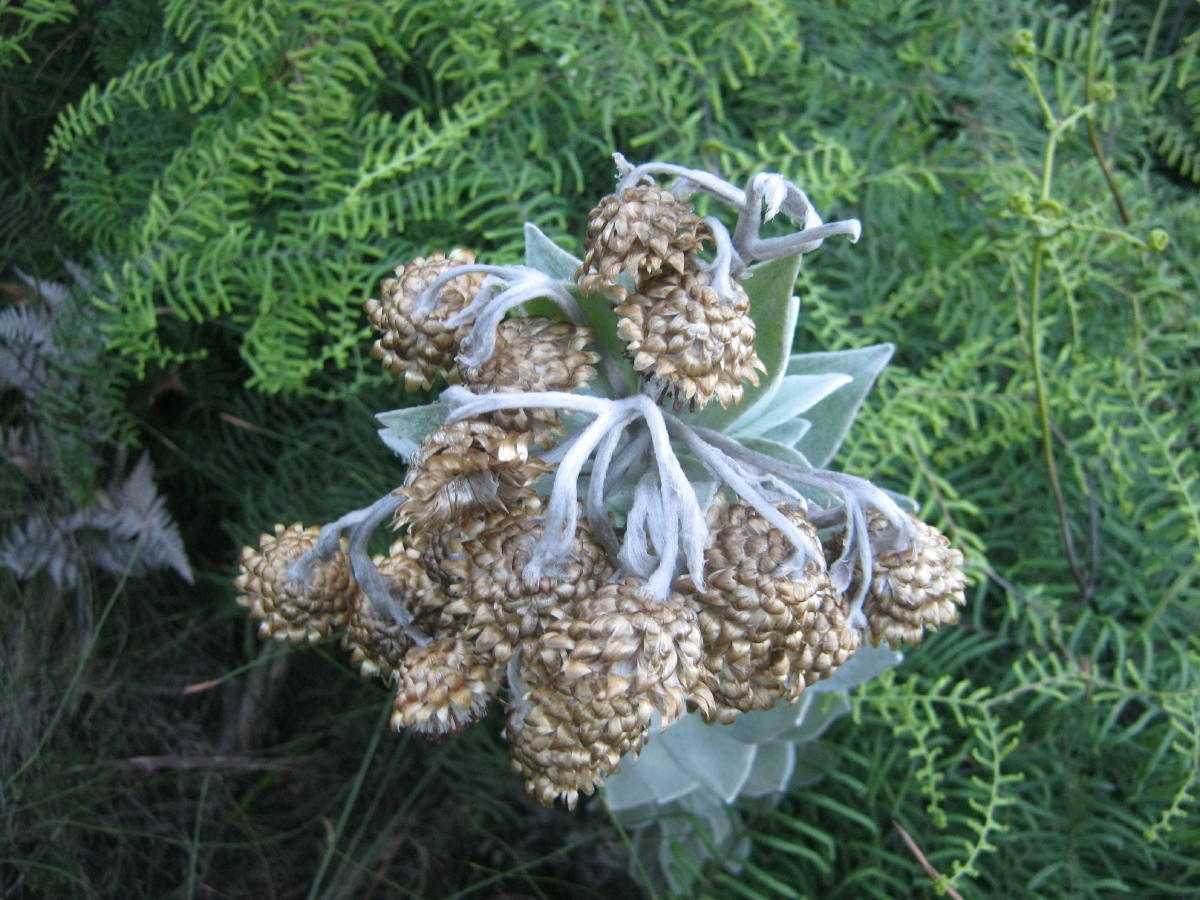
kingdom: Plantae
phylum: Tracheophyta
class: Magnoliopsida
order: Asterales
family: Asteraceae
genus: Syncarpha
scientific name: Syncarpha eximia
